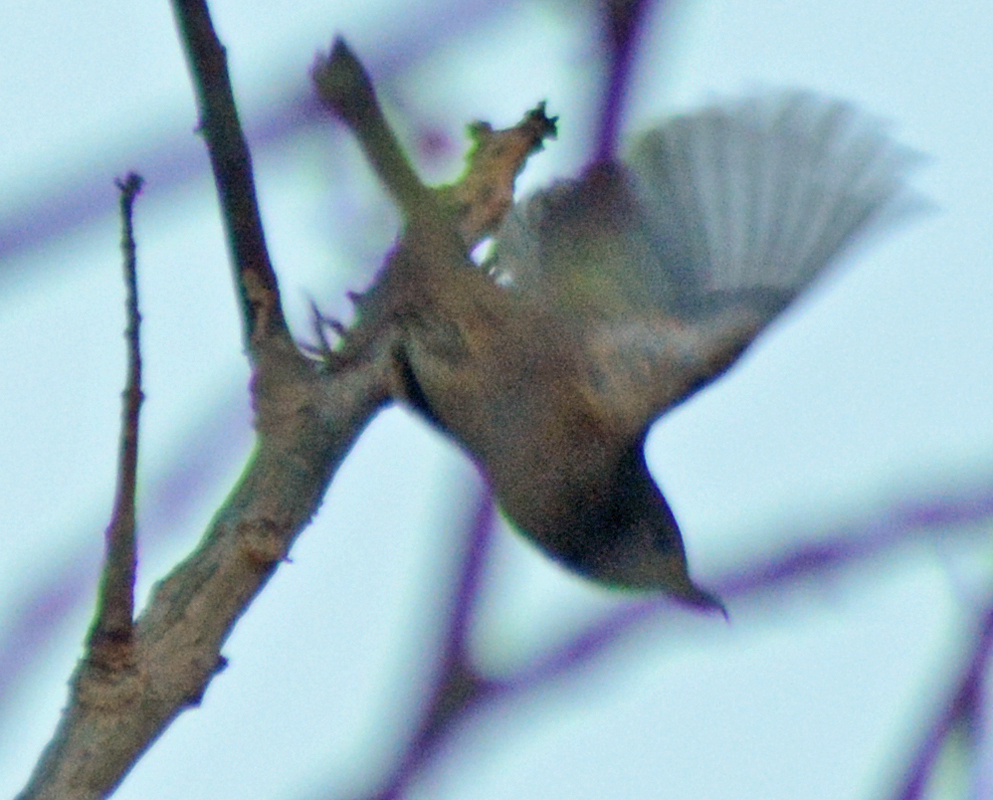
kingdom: Animalia
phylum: Chordata
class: Aves
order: Passeriformes
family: Thraupidae
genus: Diglossa
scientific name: Diglossa baritula
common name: Cinnamon-bellied flowerpiercer
